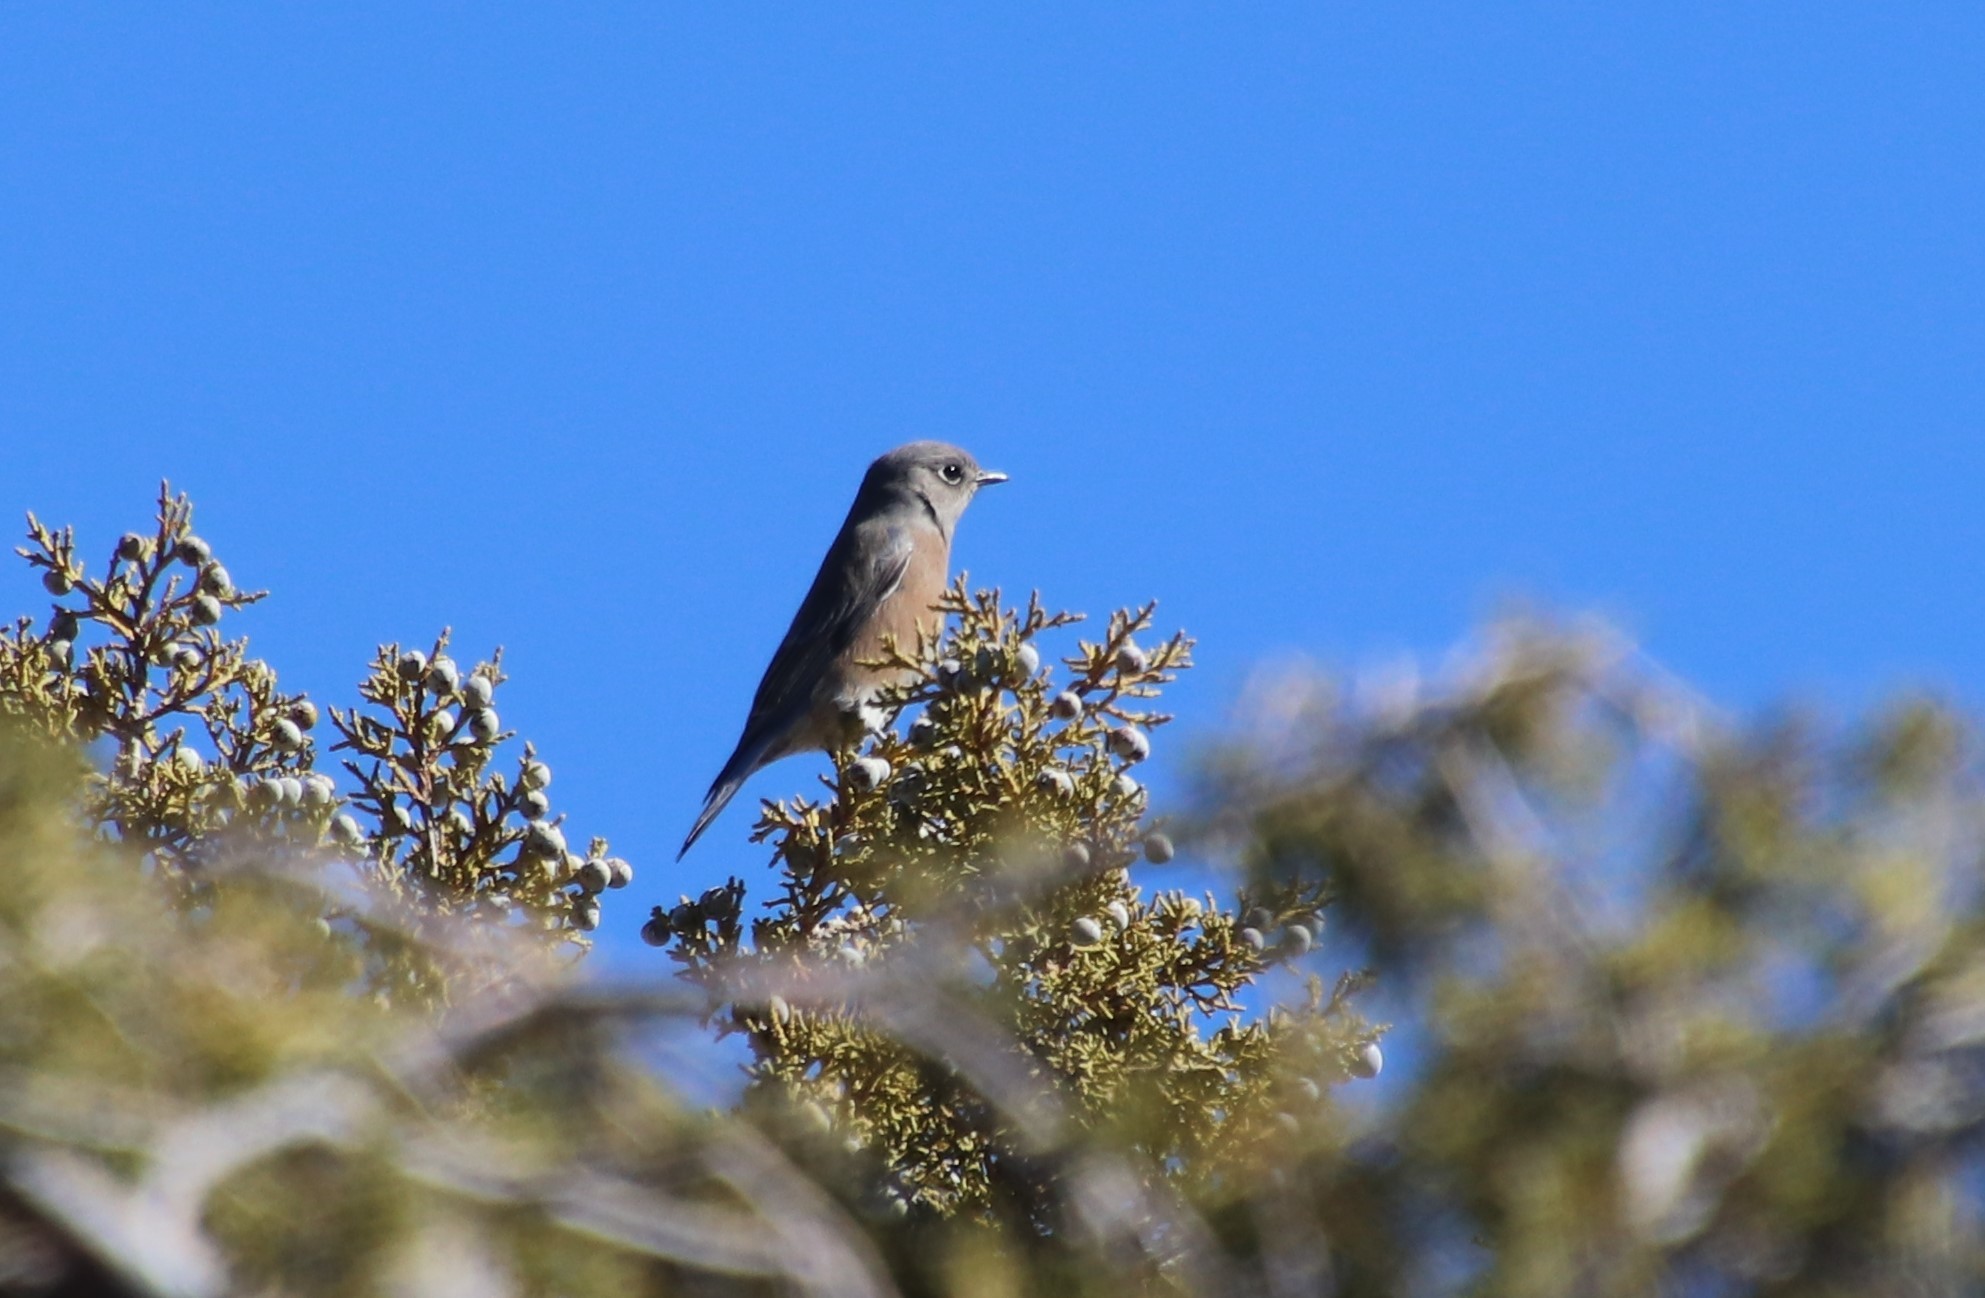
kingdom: Animalia
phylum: Chordata
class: Aves
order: Passeriformes
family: Turdidae
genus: Sialia
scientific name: Sialia mexicana
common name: Western bluebird
